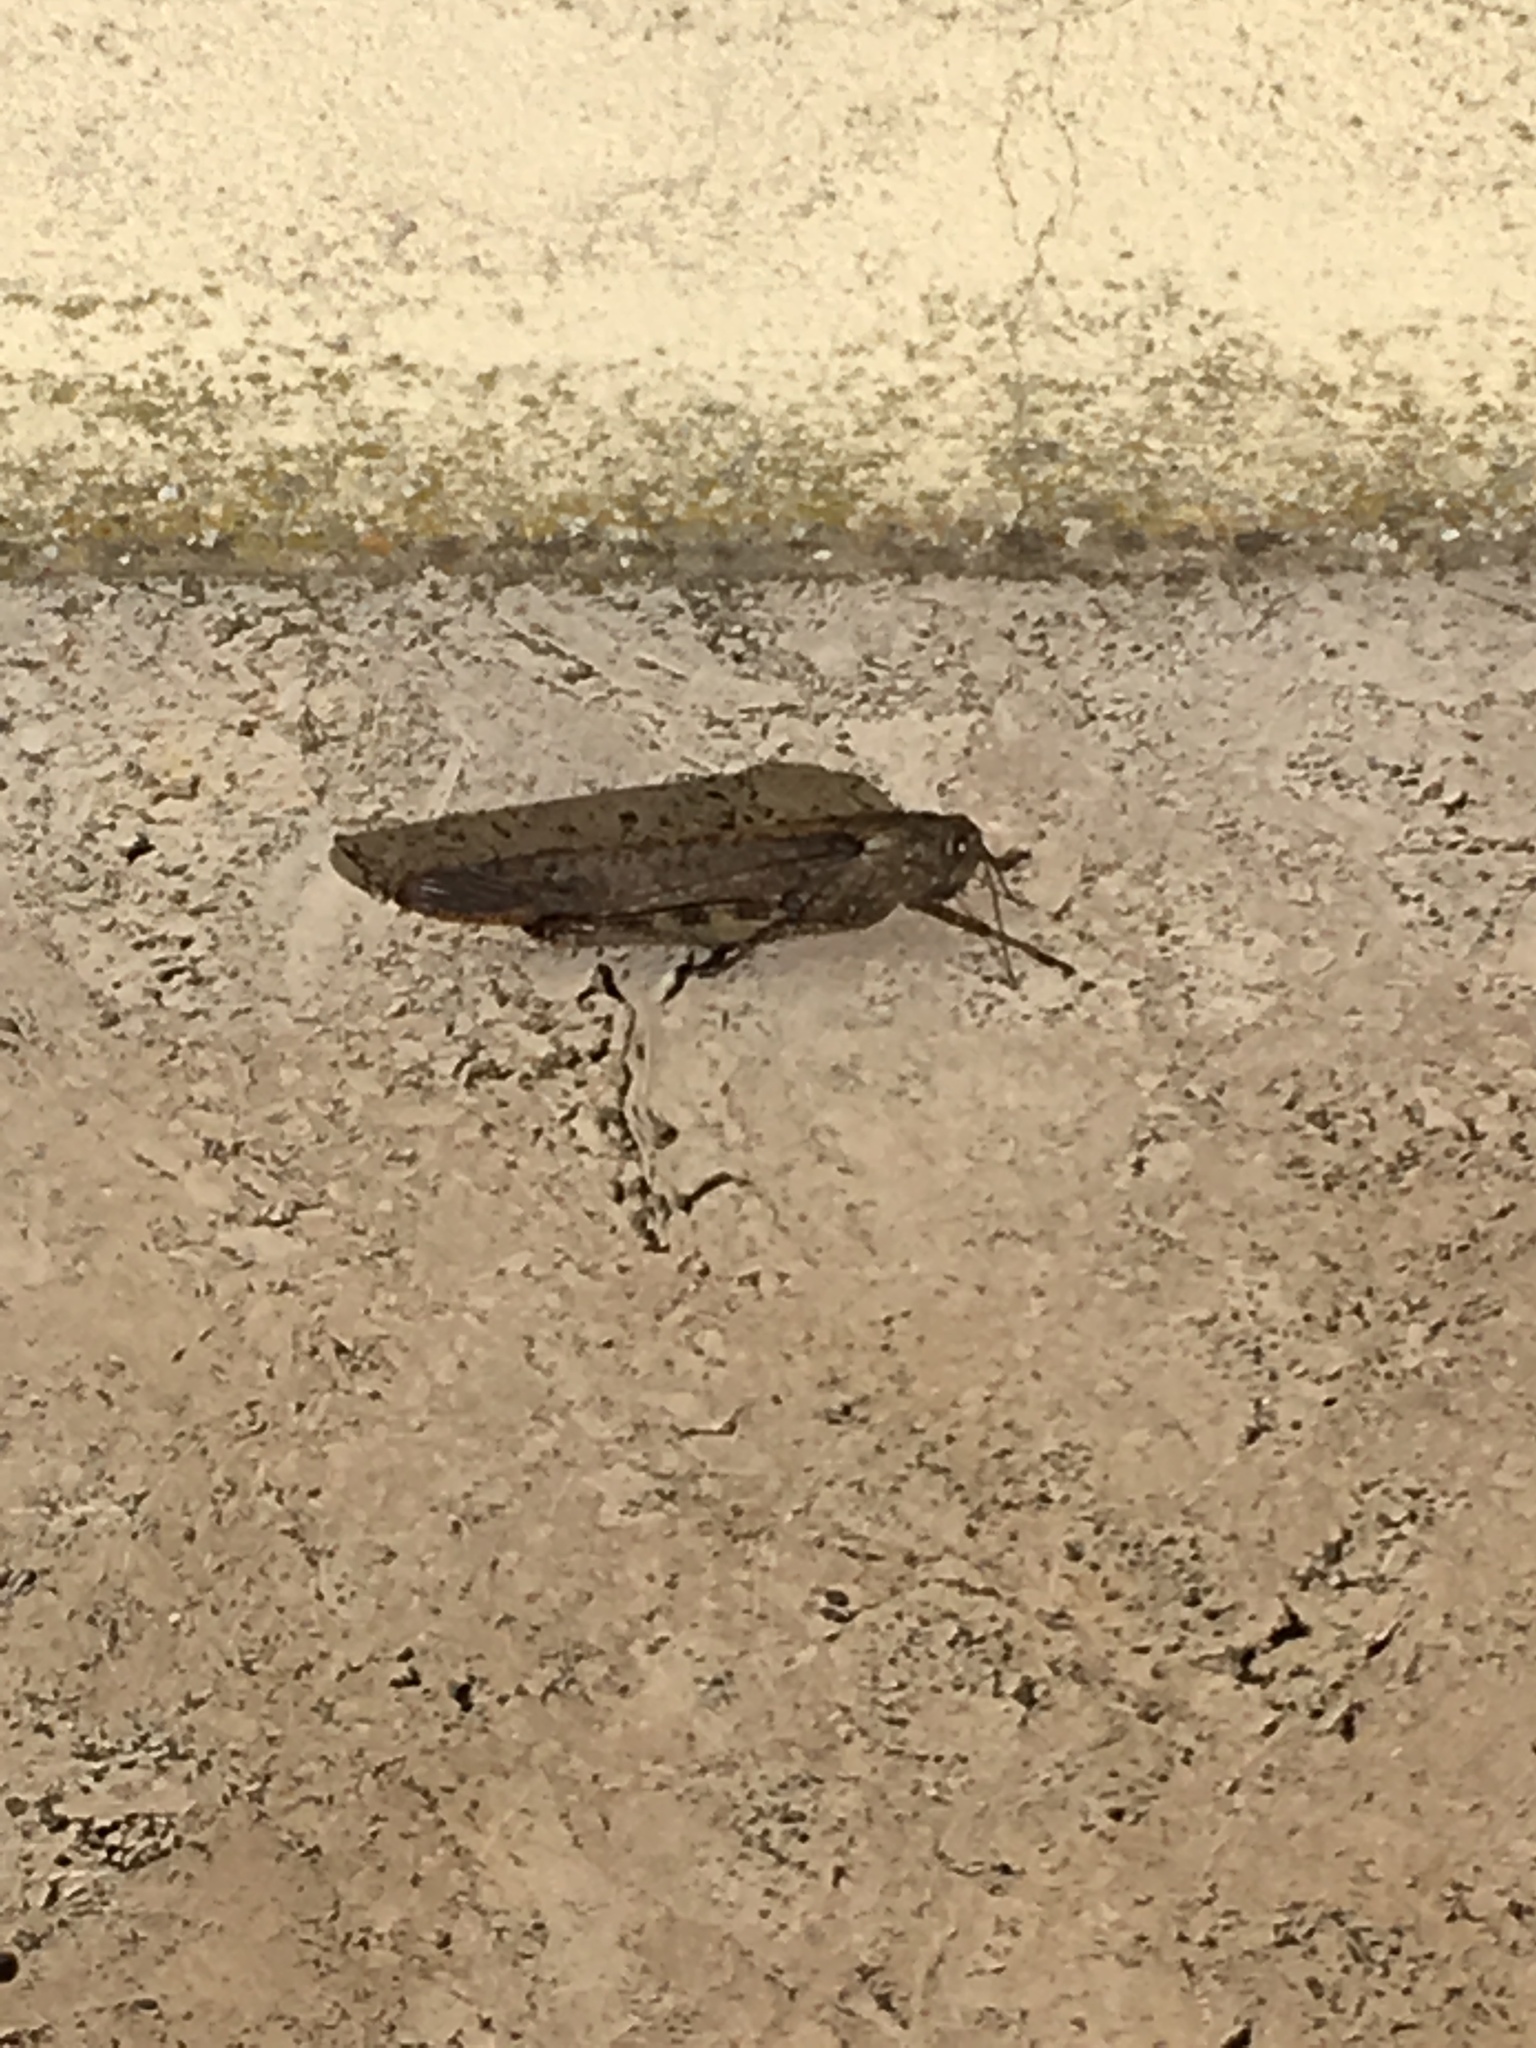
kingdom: Animalia
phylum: Arthropoda
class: Insecta
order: Orthoptera
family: Acrididae
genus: Anacridium
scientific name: Anacridium aegyptium
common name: Egyptian grasshopper
